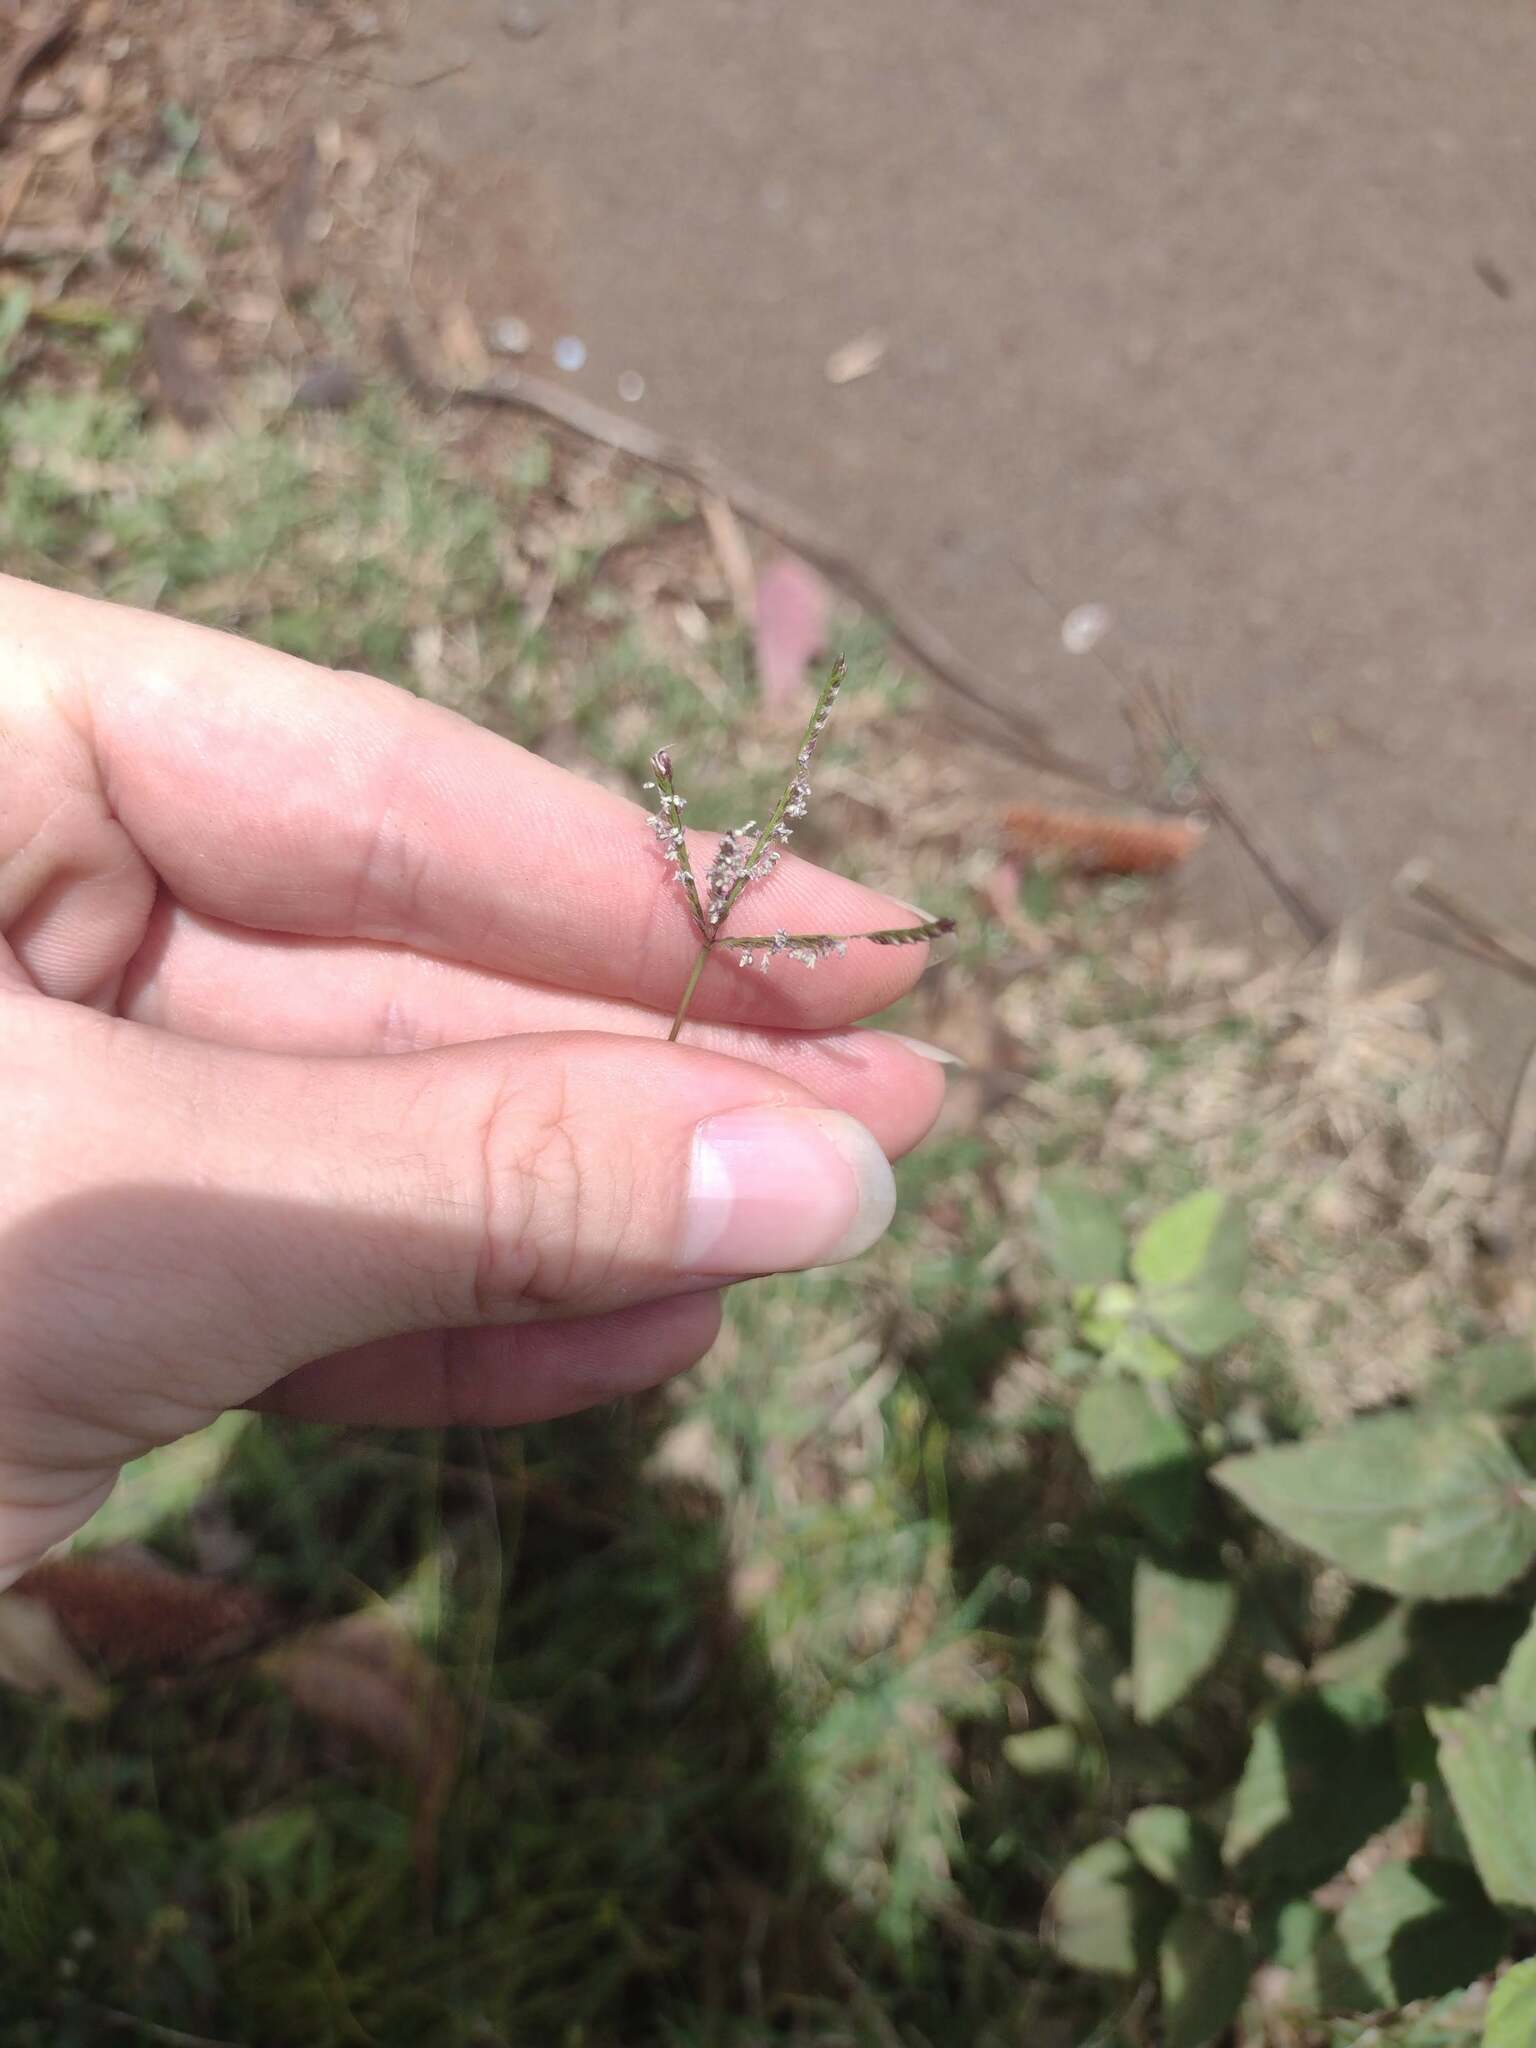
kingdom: Plantae
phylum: Tracheophyta
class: Liliopsida
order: Poales
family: Poaceae
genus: Cynodon
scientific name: Cynodon dactylon
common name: Bermuda grass
